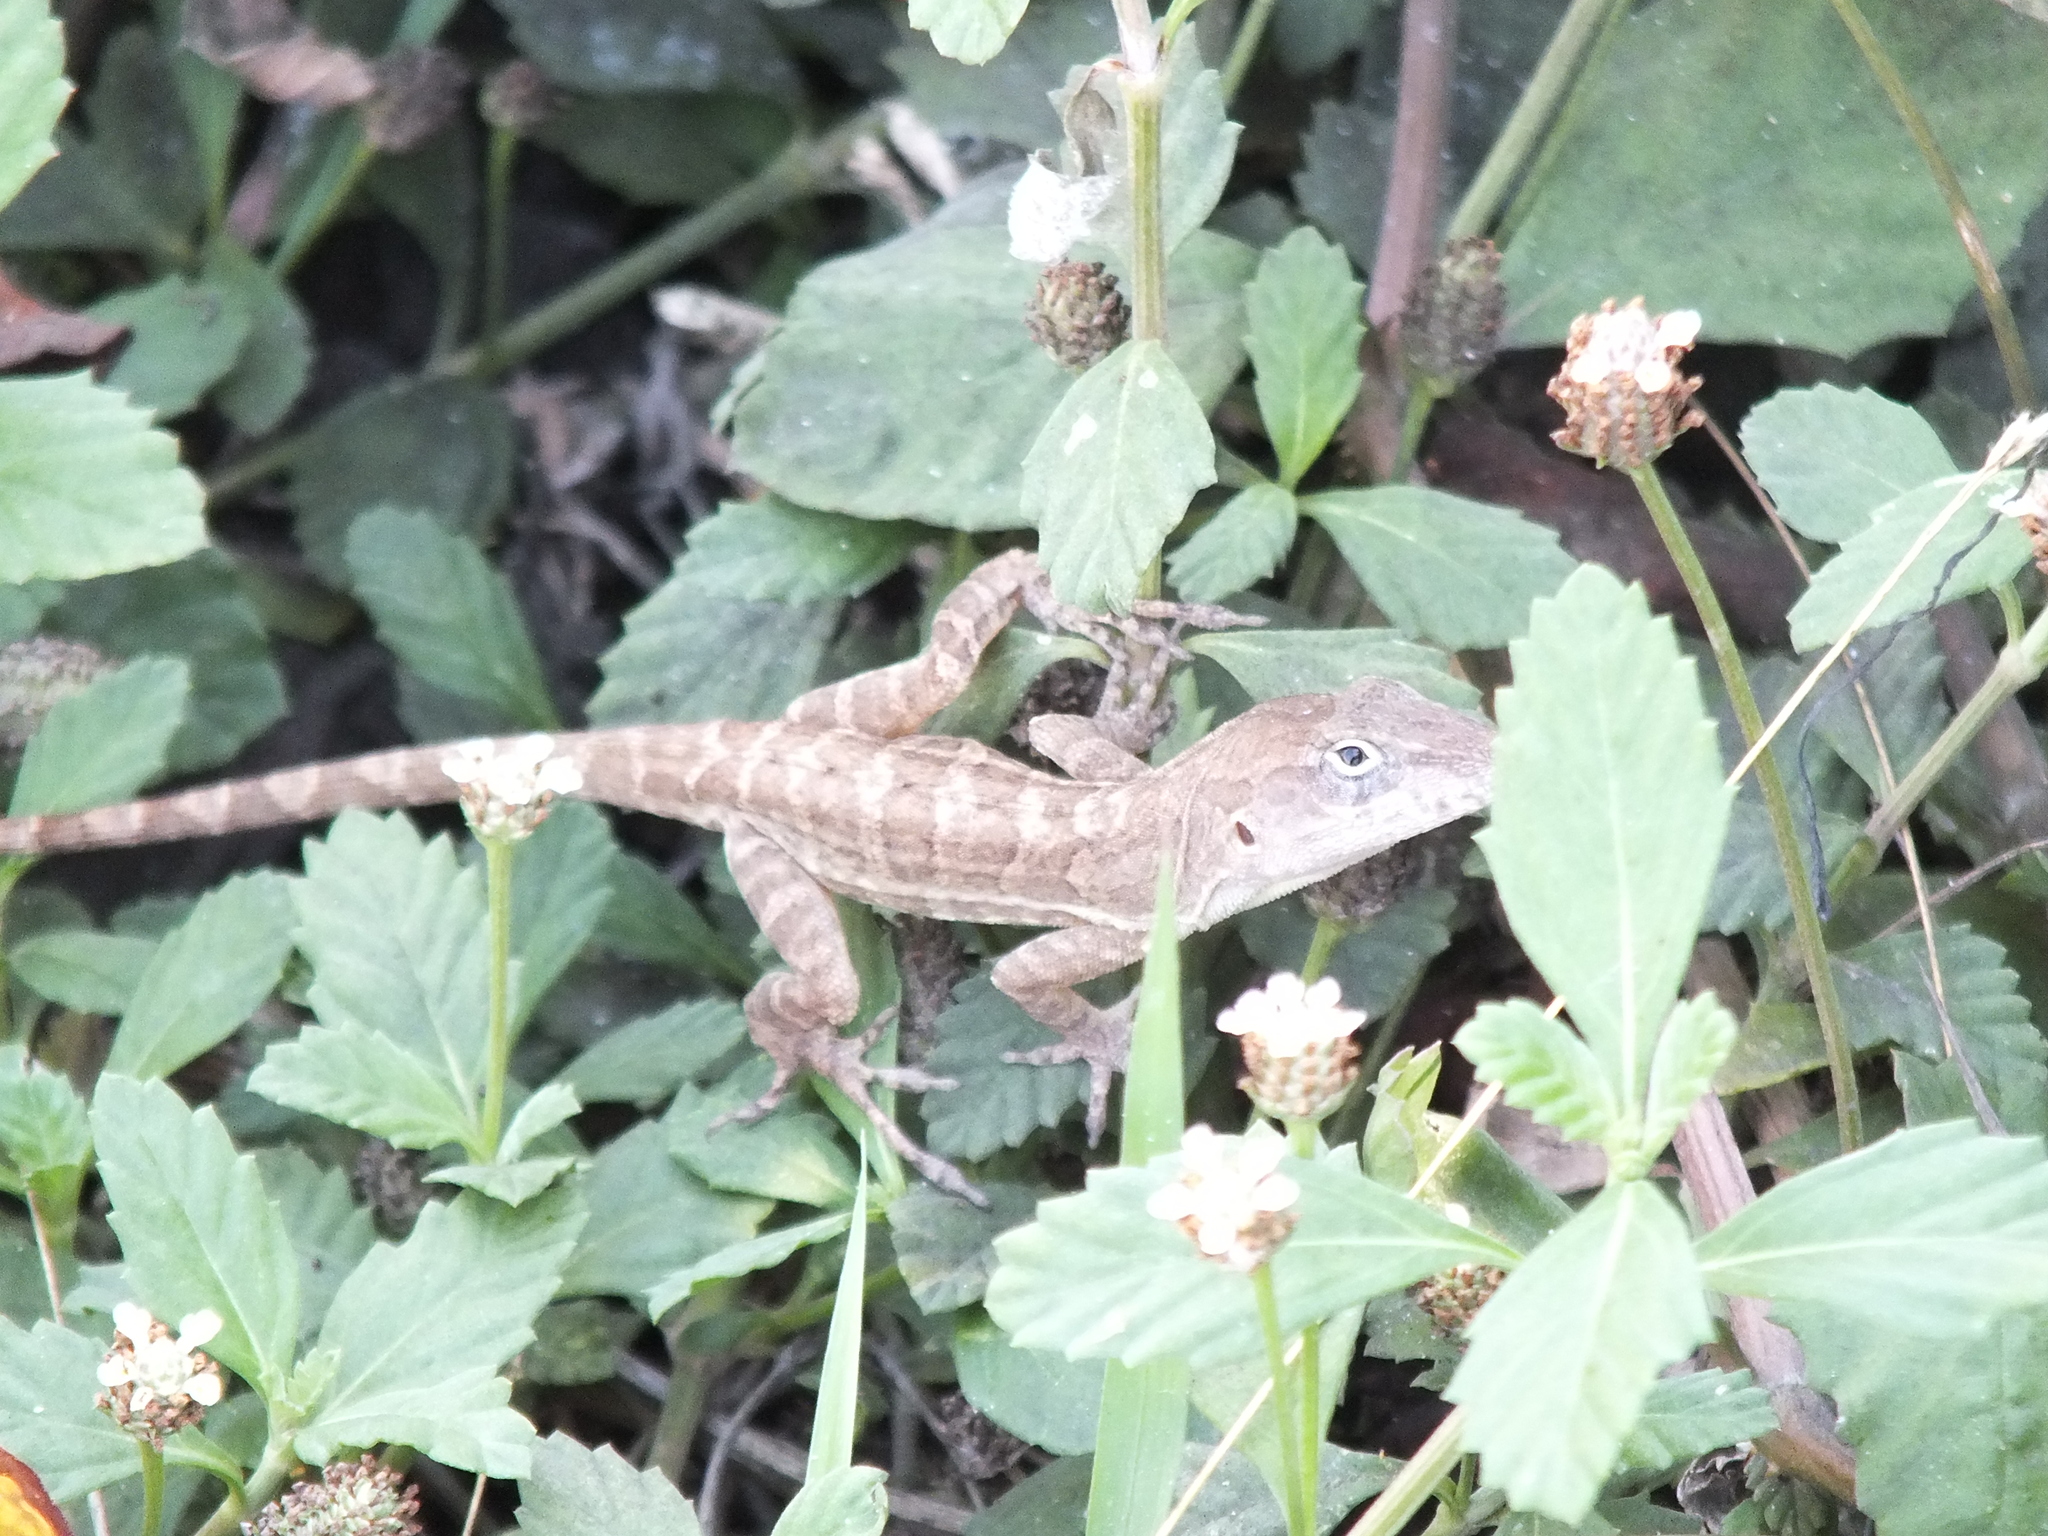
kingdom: Animalia
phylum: Chordata
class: Squamata
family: Dactyloidae
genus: Anolis
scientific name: Anolis lineatopus
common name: Stripefoot anole
